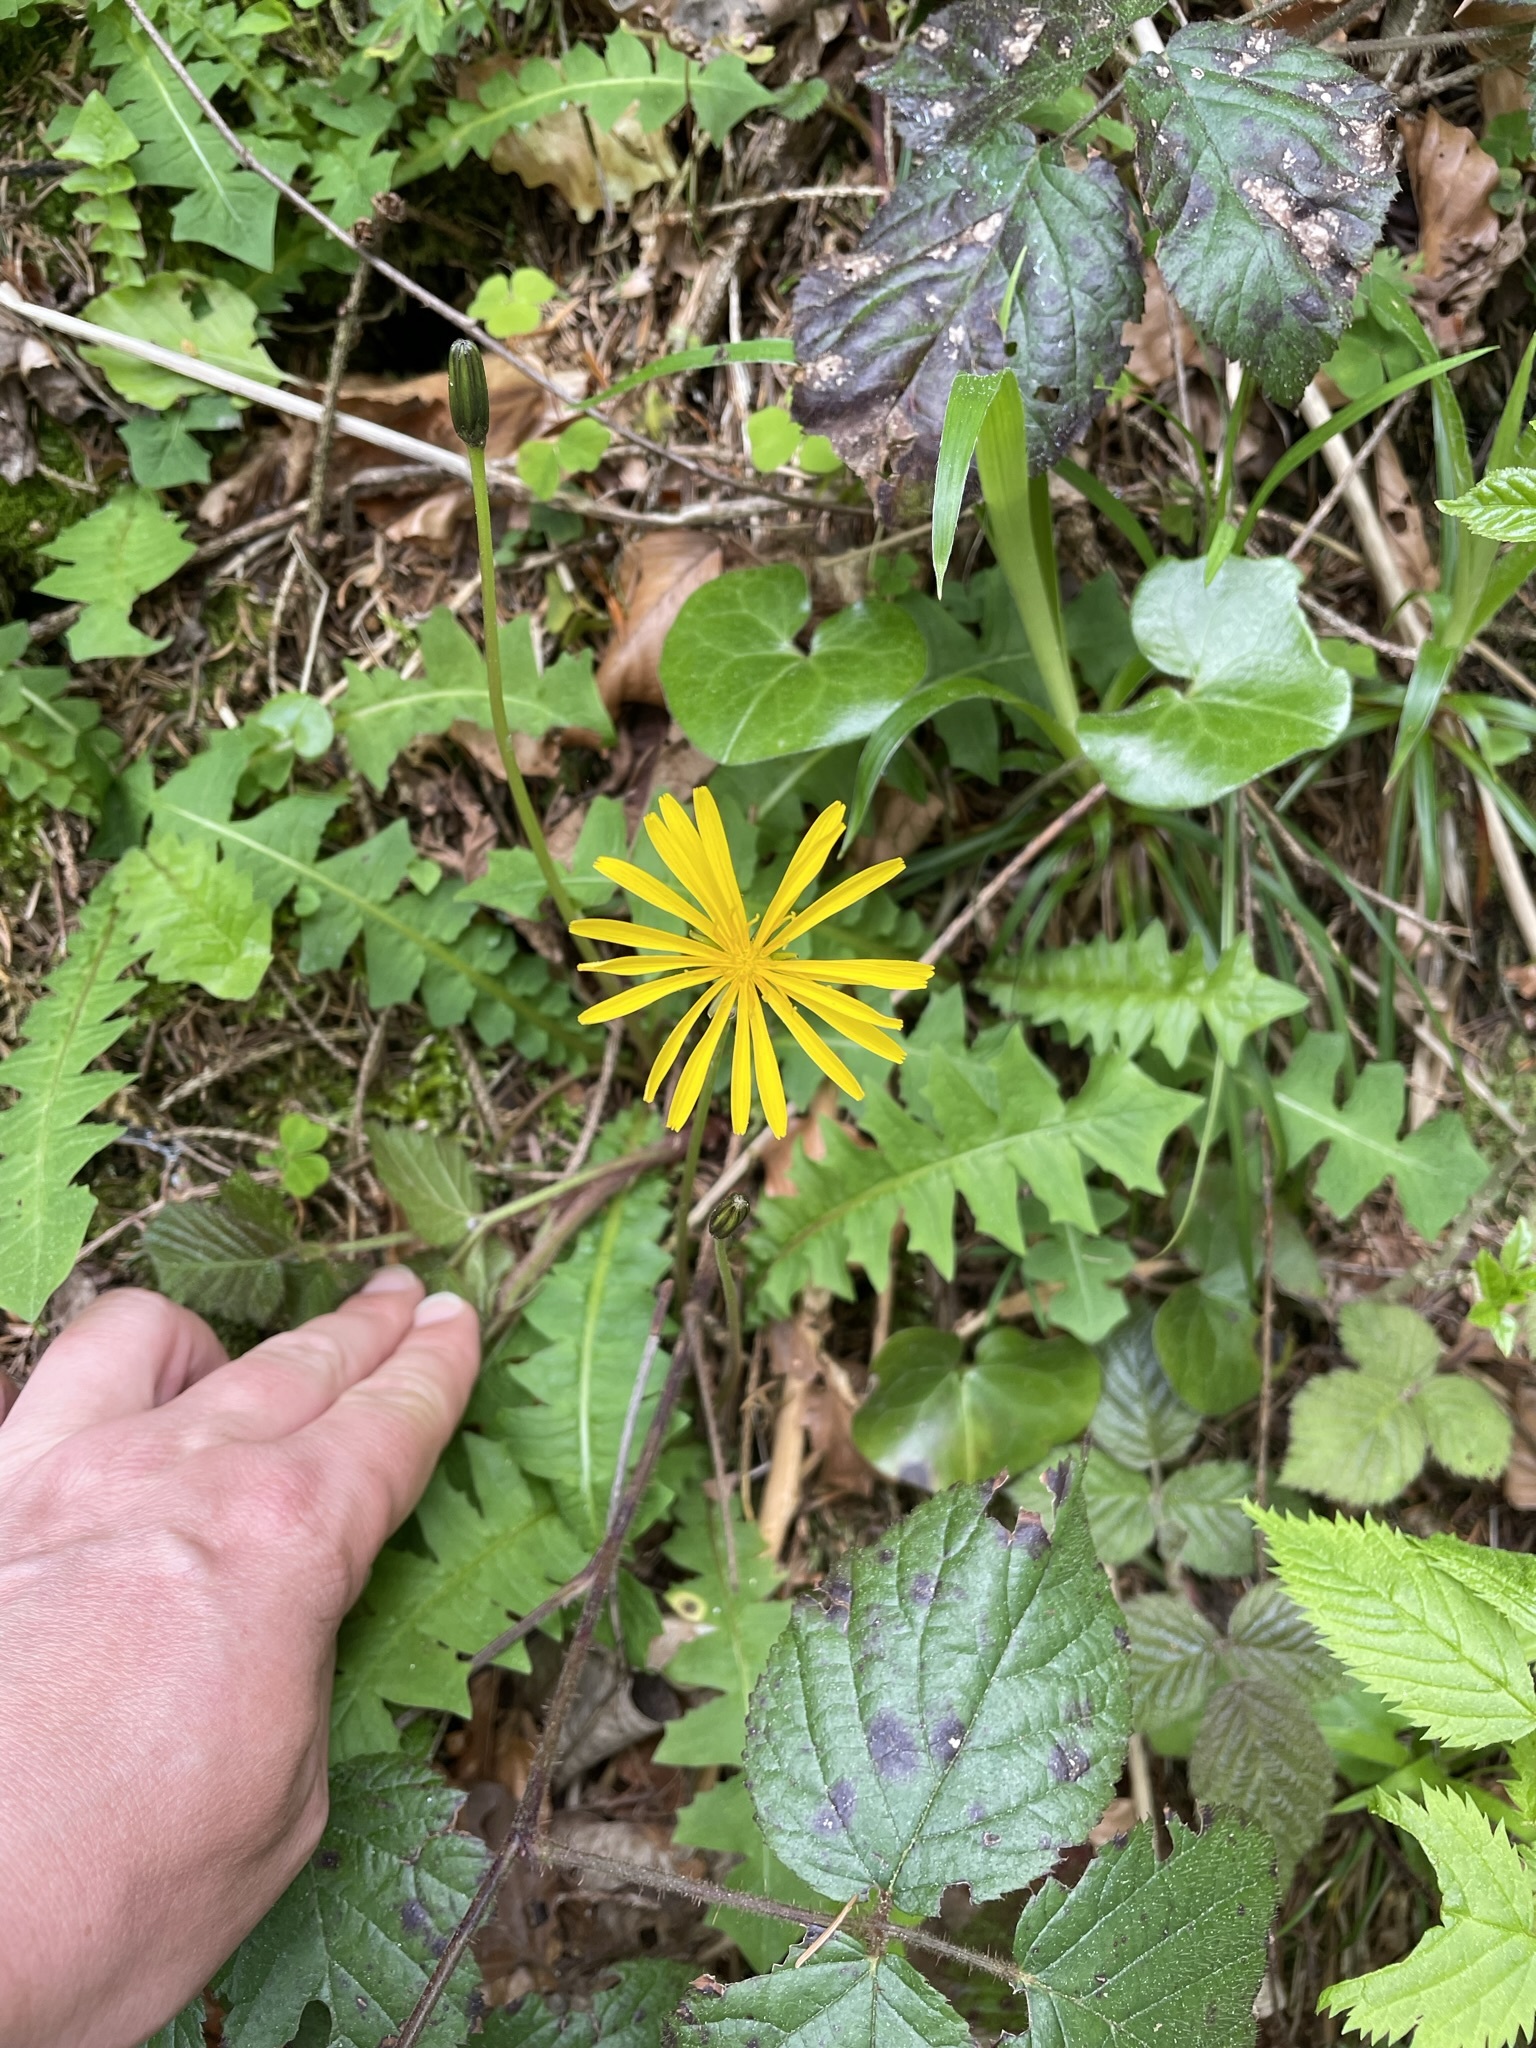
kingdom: Plantae
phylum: Tracheophyta
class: Magnoliopsida
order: Asterales
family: Asteraceae
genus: Aposeris
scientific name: Aposeris foetida
